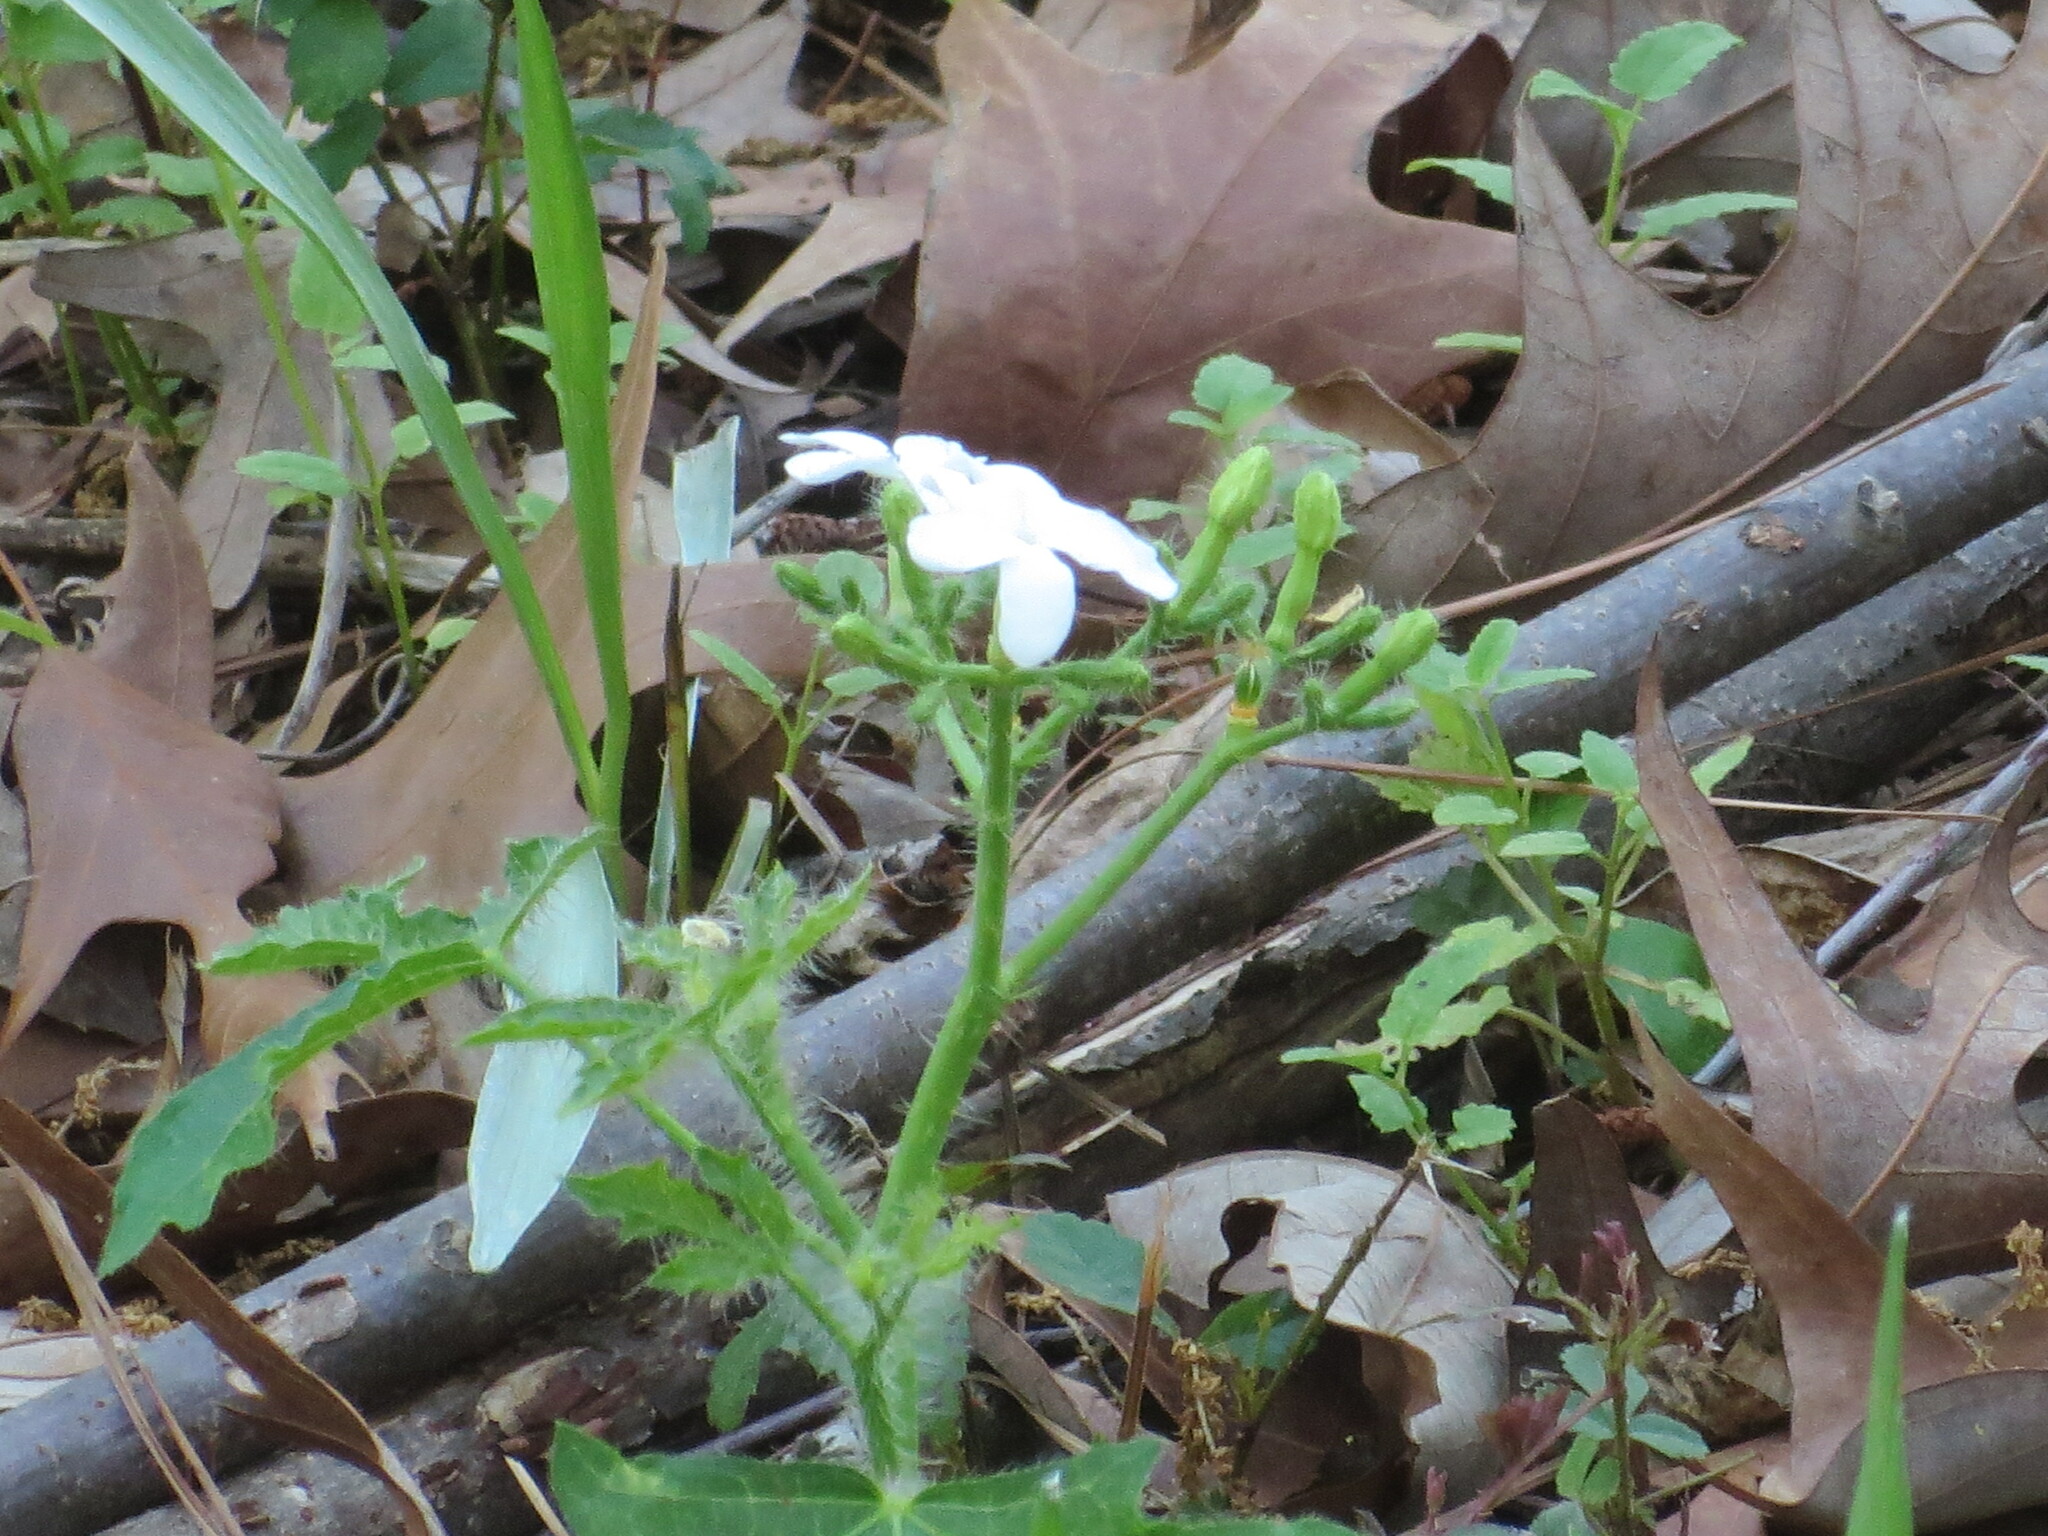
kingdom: Plantae
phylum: Tracheophyta
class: Magnoliopsida
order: Malpighiales
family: Euphorbiaceae
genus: Cnidoscolus
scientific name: Cnidoscolus stimulosus
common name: Bull-nettle
